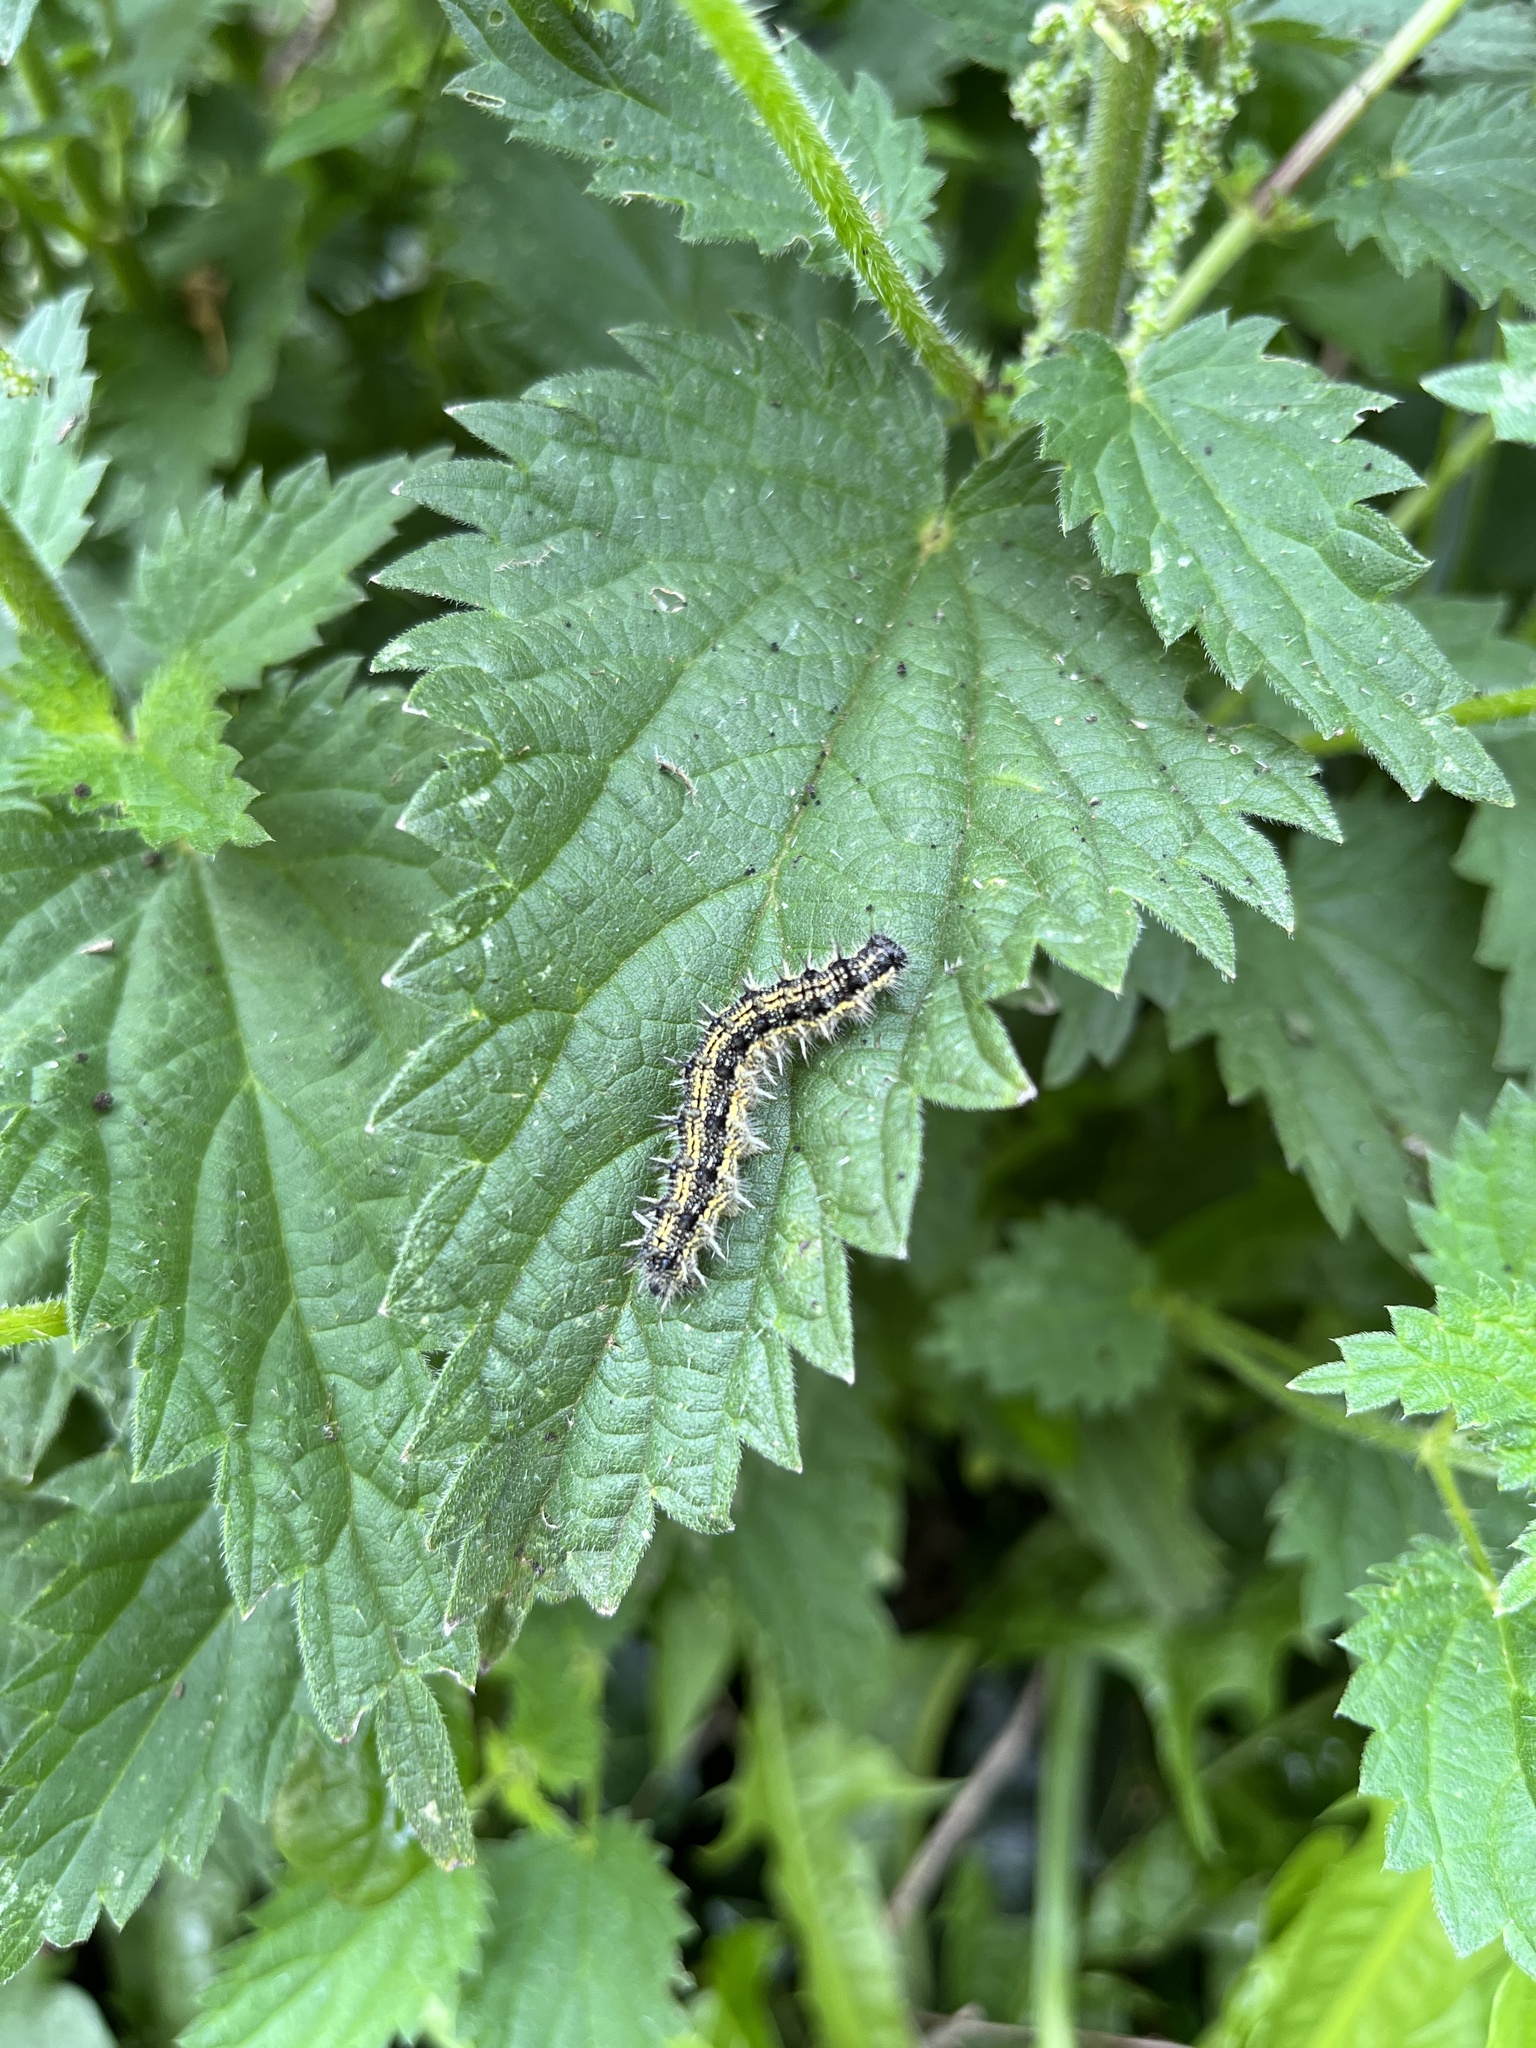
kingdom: Animalia
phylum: Arthropoda
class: Insecta
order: Lepidoptera
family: Nymphalidae
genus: Aglais
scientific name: Aglais urticae
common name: Small tortoiseshell
